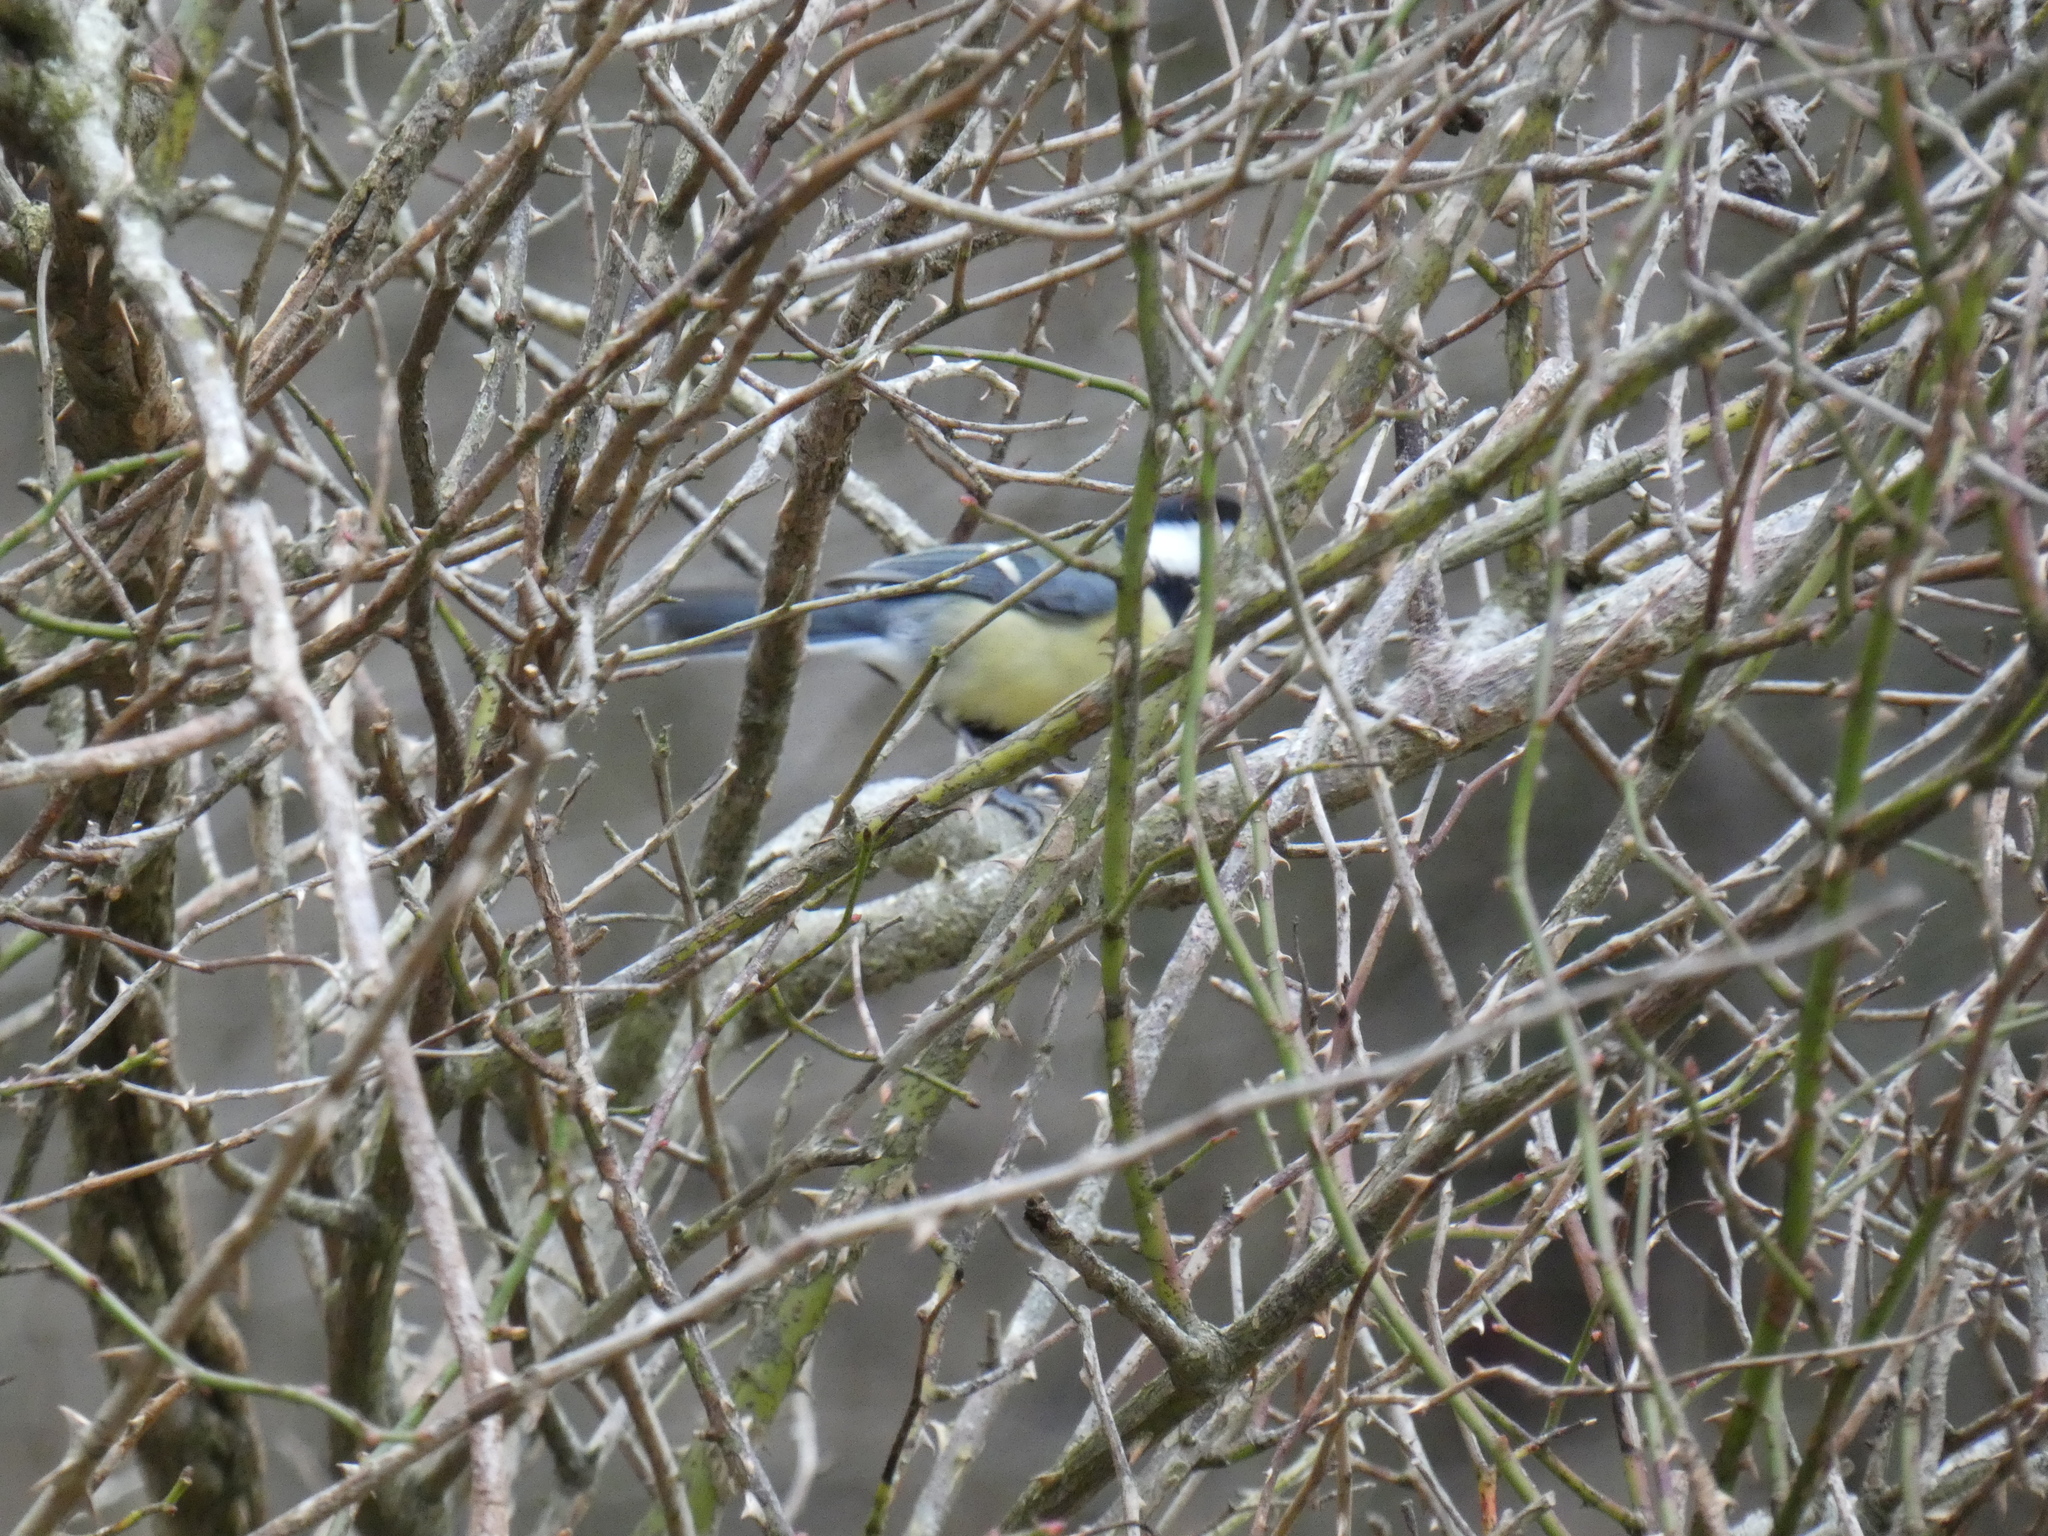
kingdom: Animalia
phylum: Chordata
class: Aves
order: Passeriformes
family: Paridae
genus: Parus
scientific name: Parus major
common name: Great tit
